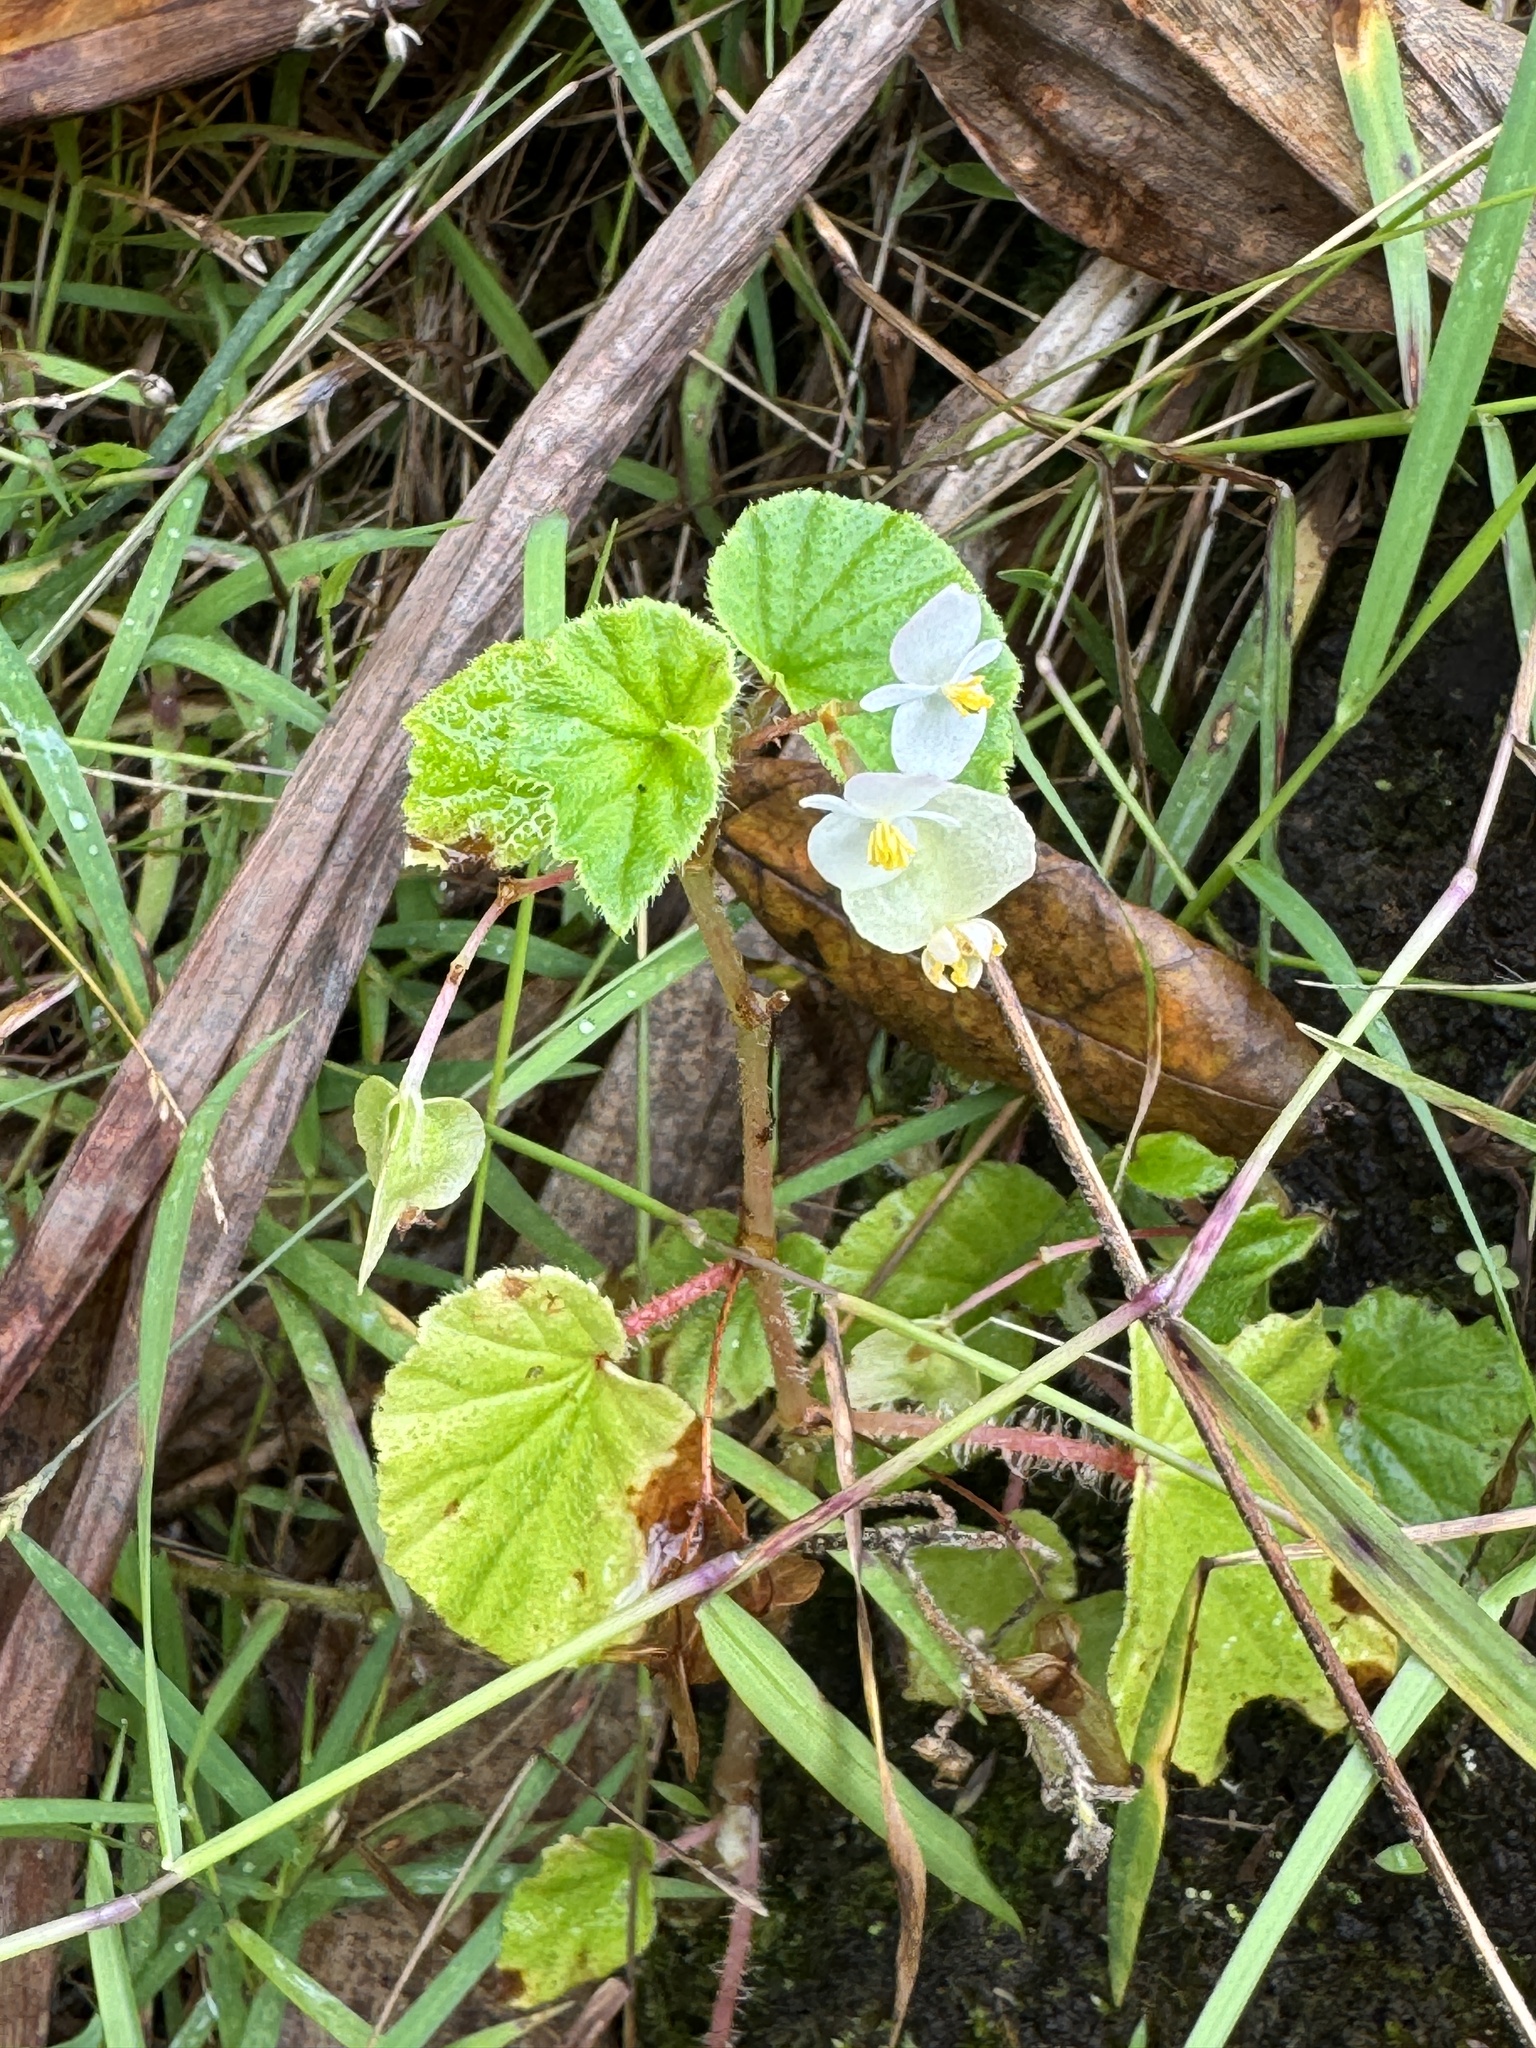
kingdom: Plantae
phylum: Tracheophyta
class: Magnoliopsida
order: Cucurbitales
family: Begoniaceae
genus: Begonia
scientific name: Begonia hirtella
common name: Brazilian begonia
